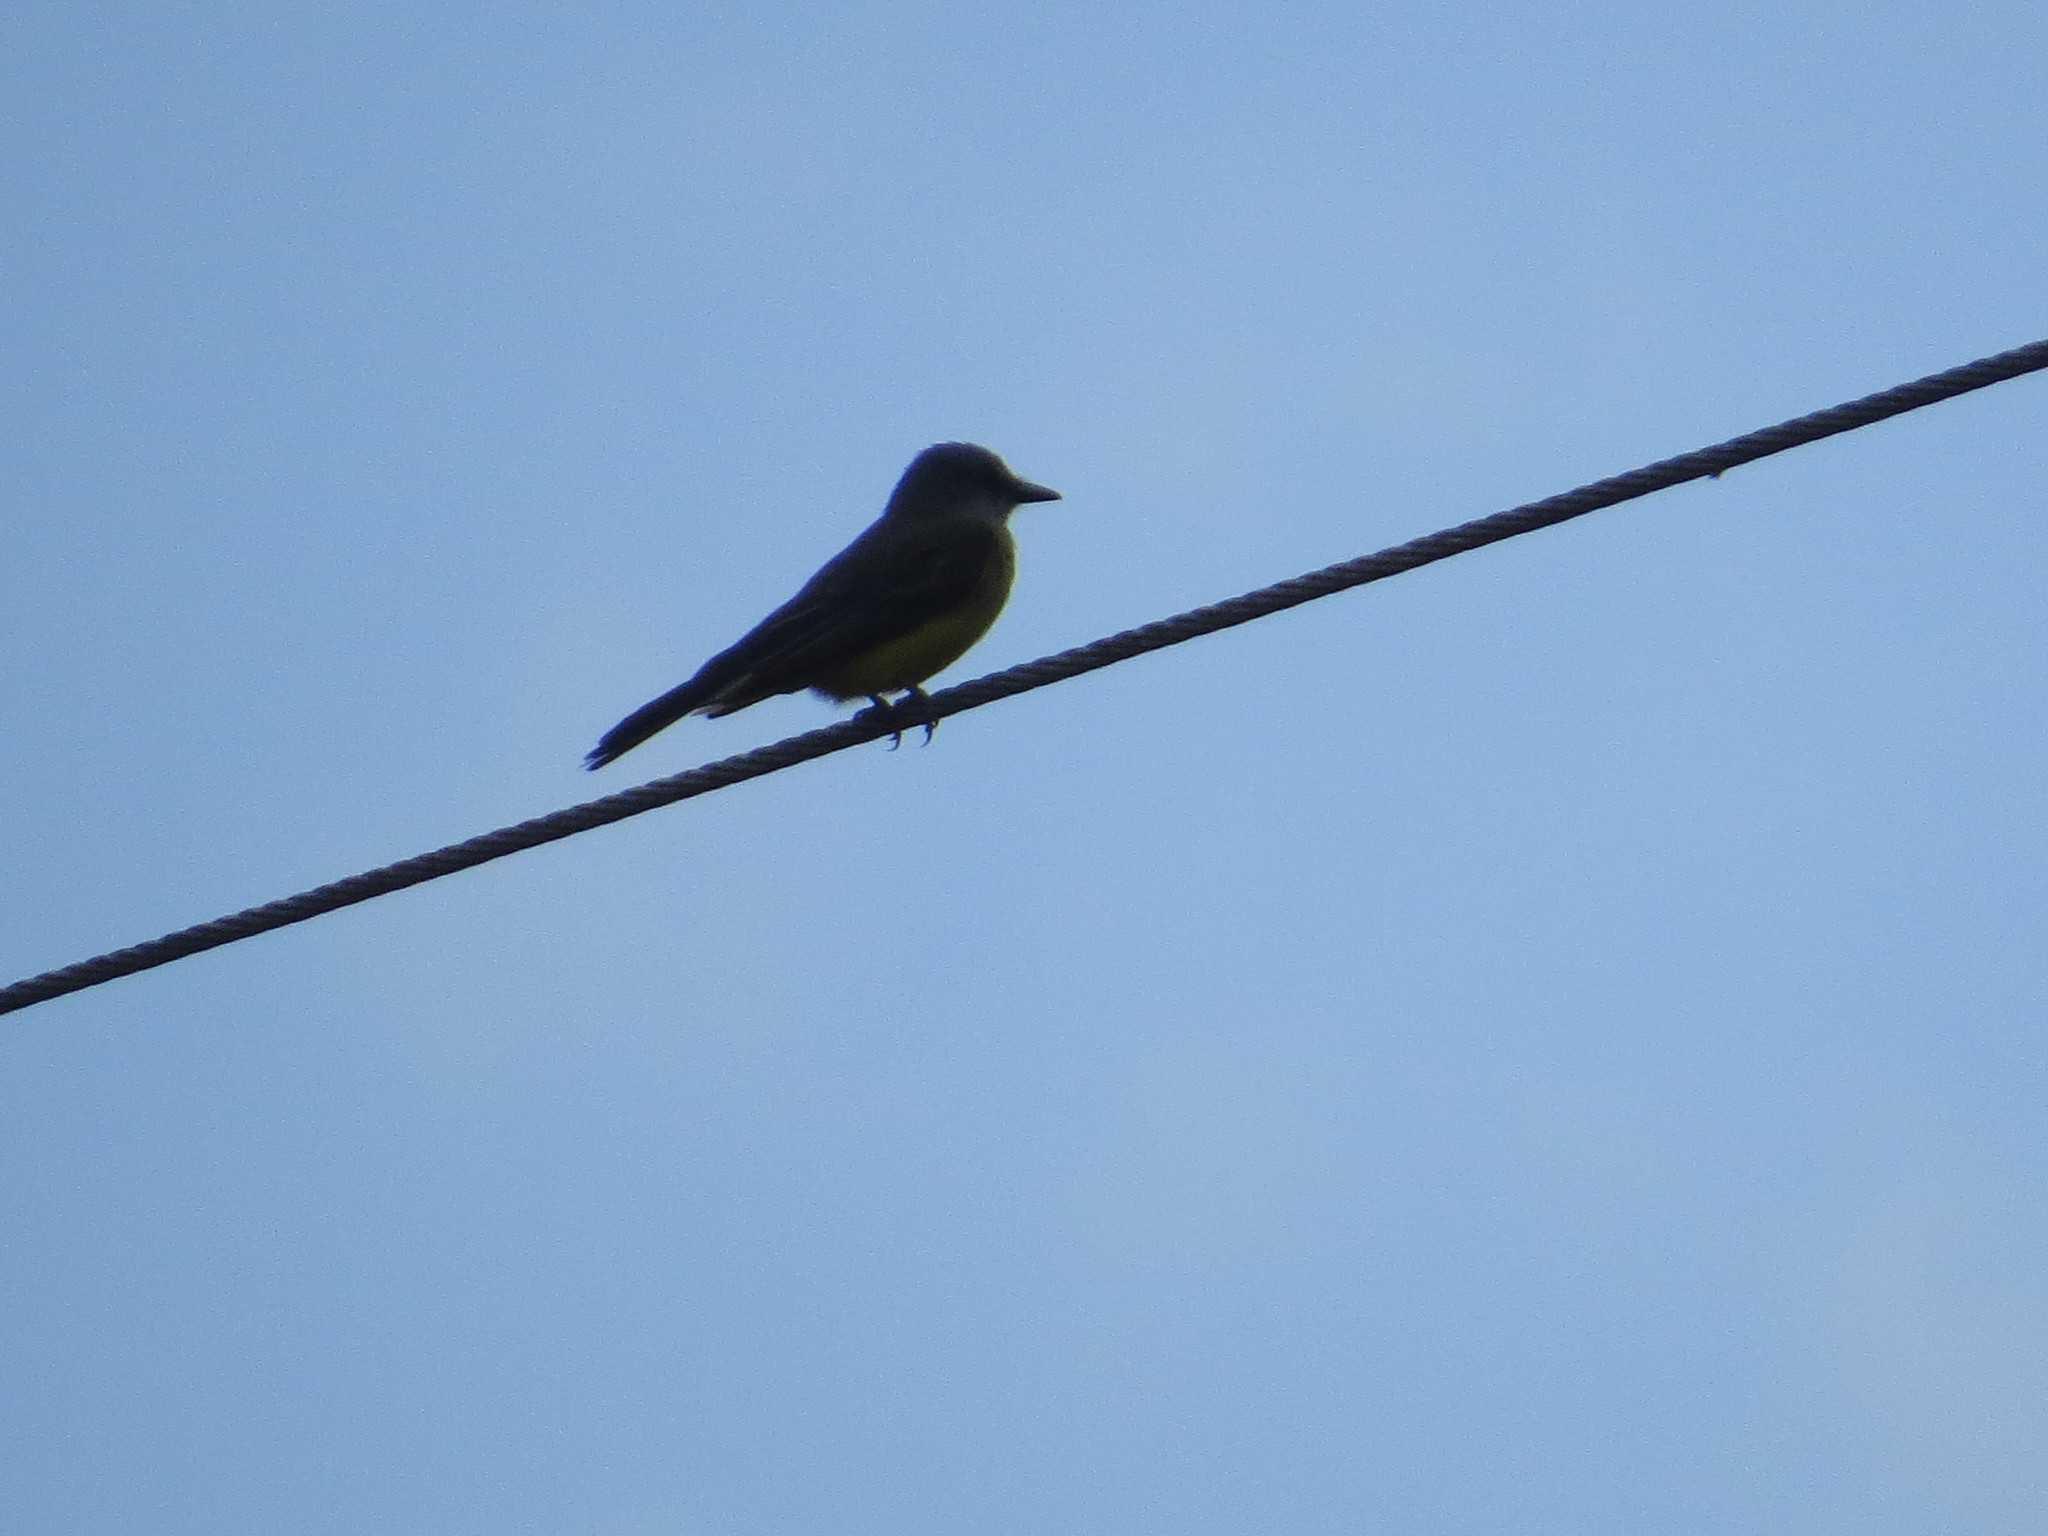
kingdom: Animalia
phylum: Chordata
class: Aves
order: Passeriformes
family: Tyrannidae
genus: Tyrannus
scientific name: Tyrannus melancholicus
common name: Tropical kingbird
